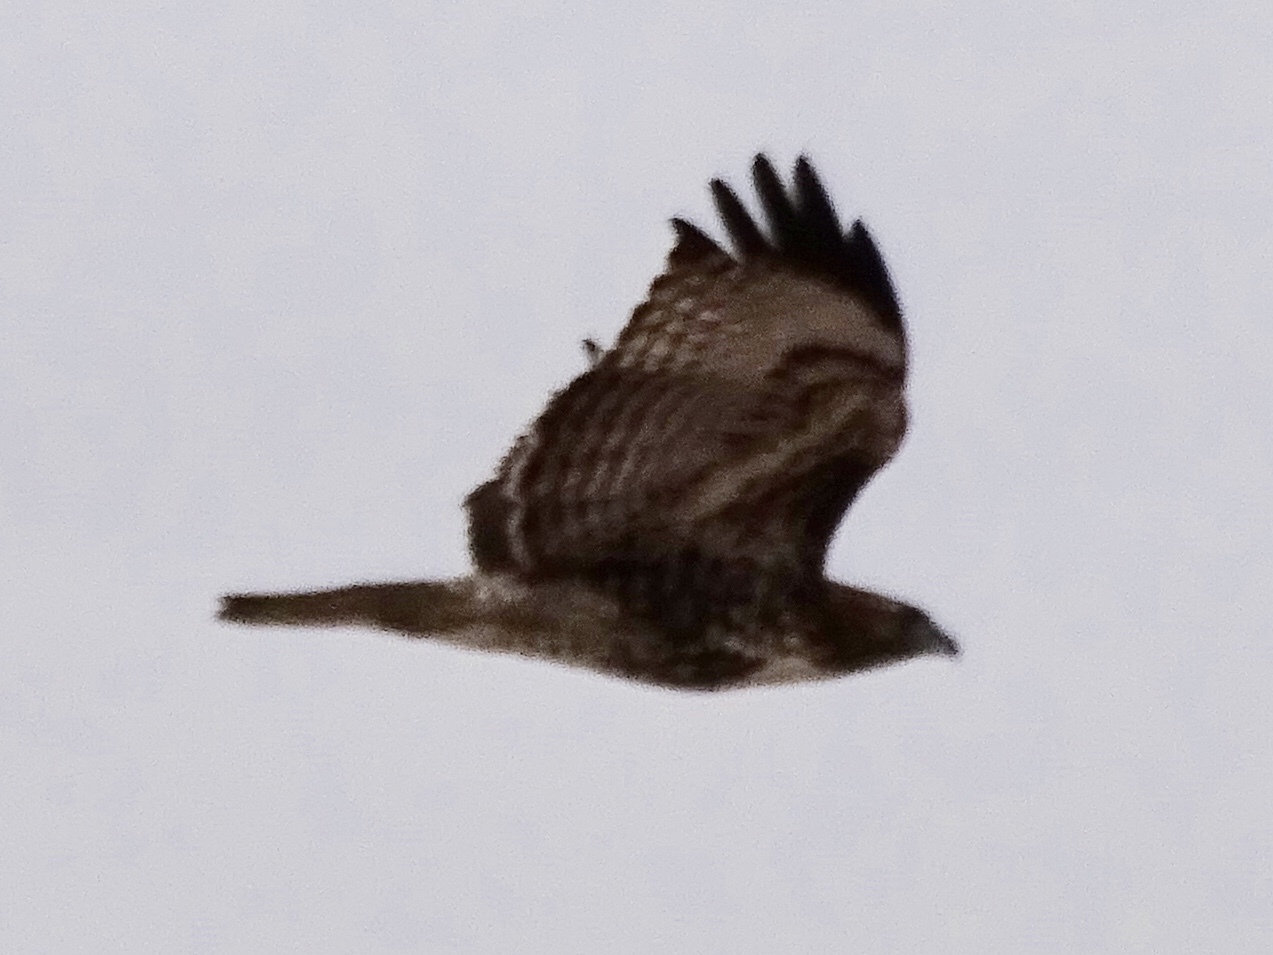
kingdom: Animalia
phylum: Chordata
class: Aves
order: Accipitriformes
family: Accipitridae
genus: Buteo
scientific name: Buteo jamaicensis
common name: Red-tailed hawk
